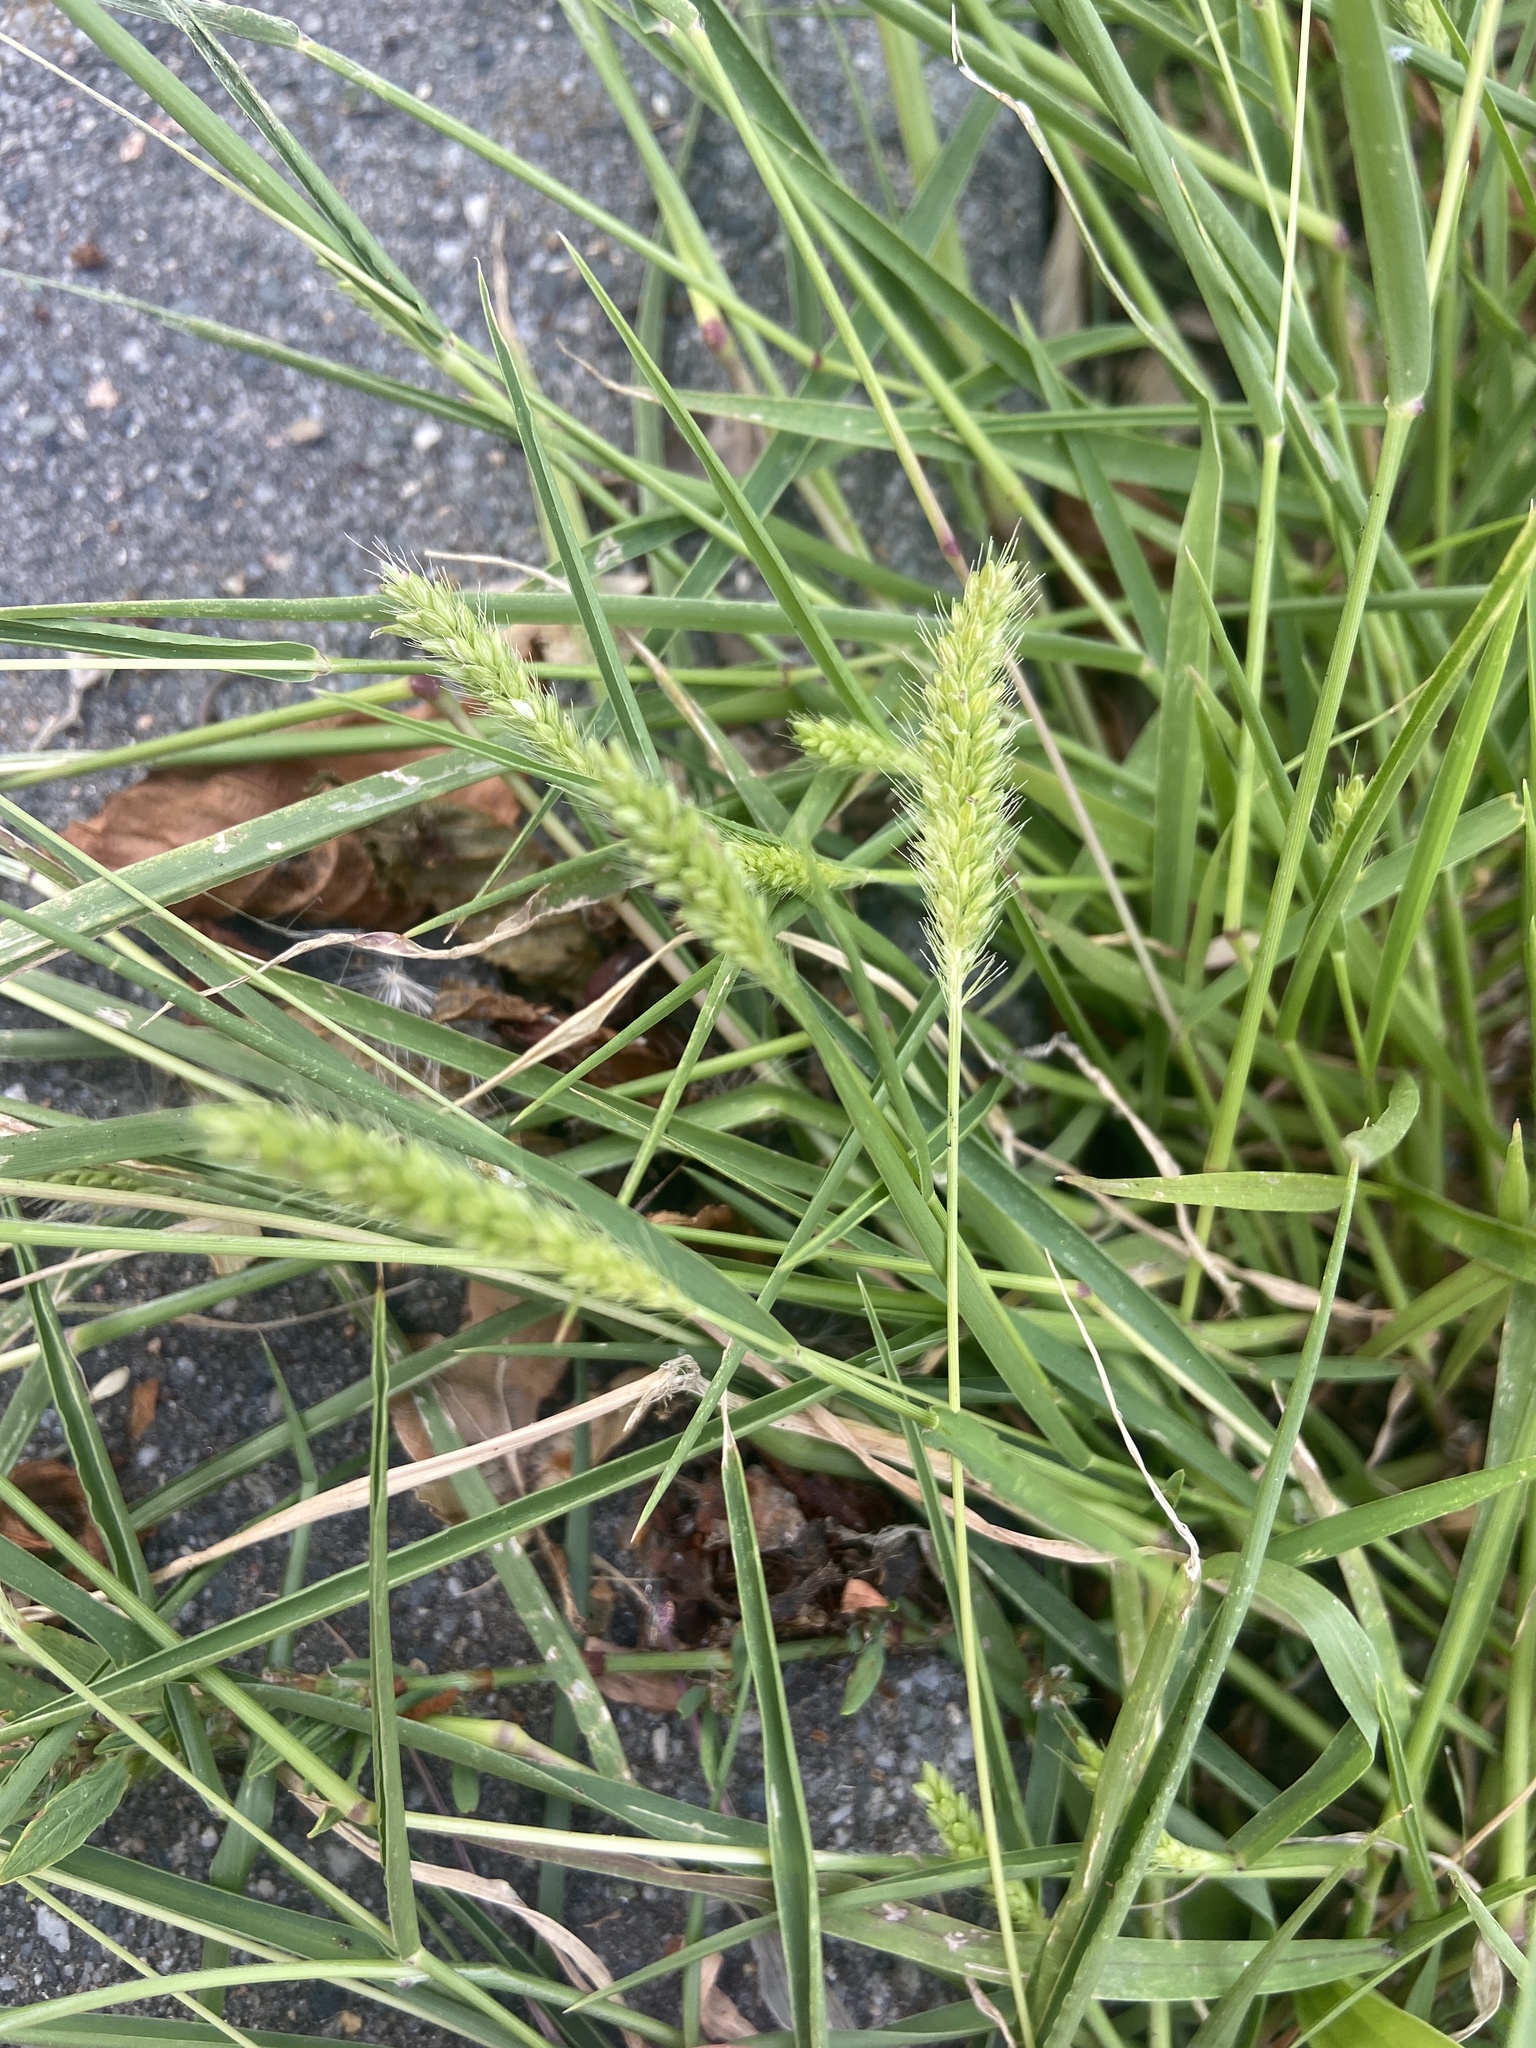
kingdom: Plantae
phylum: Tracheophyta
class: Liliopsida
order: Poales
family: Poaceae
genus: Setaria
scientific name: Setaria viridis
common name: Green bristlegrass
